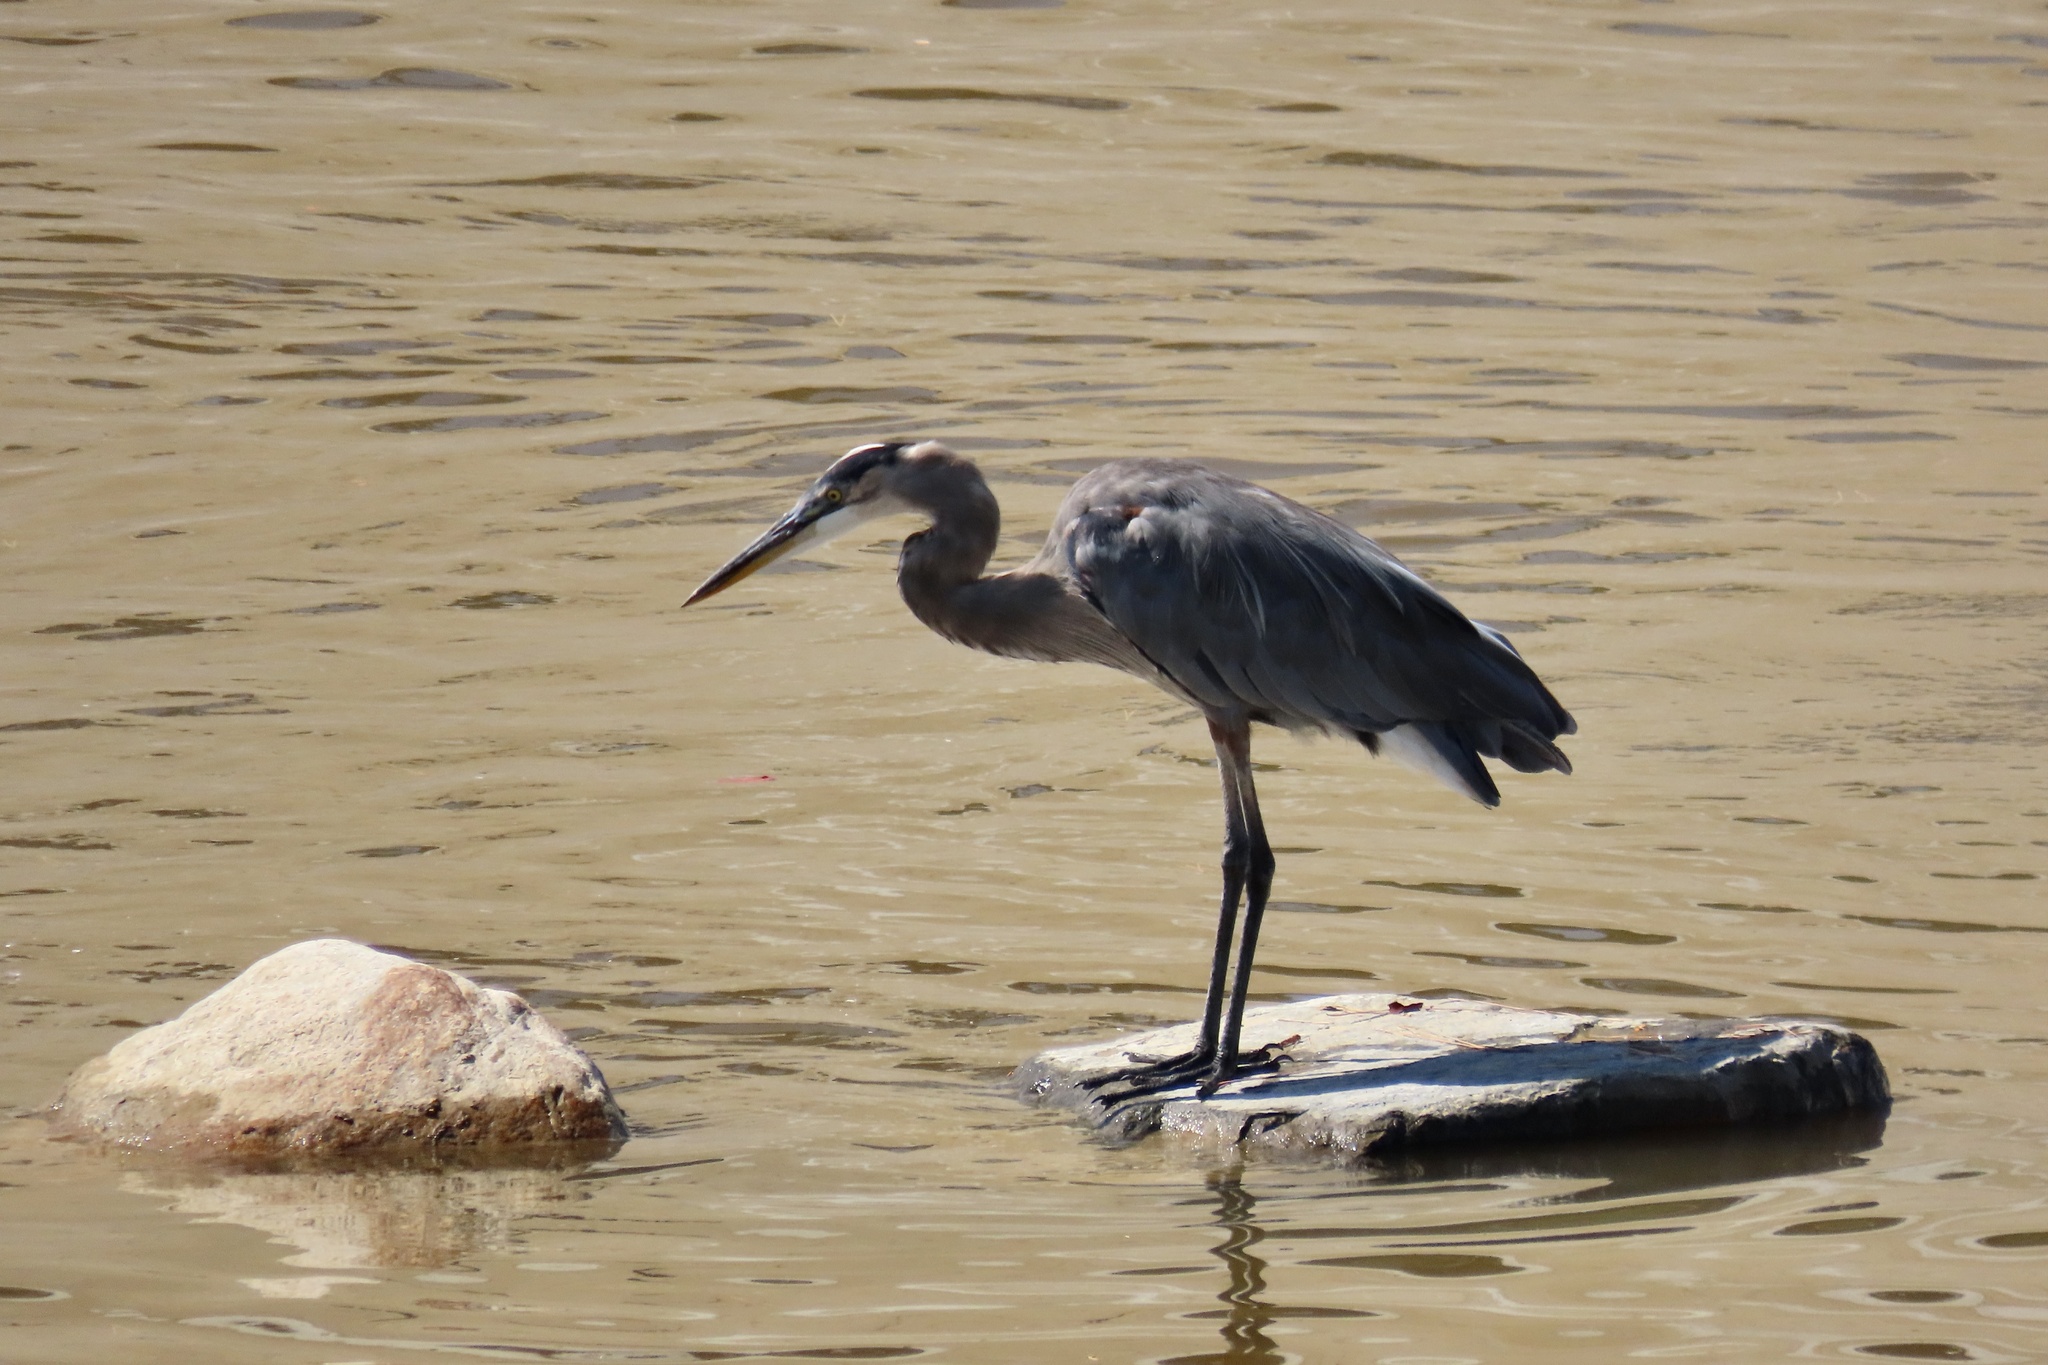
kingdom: Animalia
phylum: Chordata
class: Aves
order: Pelecaniformes
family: Ardeidae
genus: Ardea
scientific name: Ardea herodias
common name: Great blue heron
